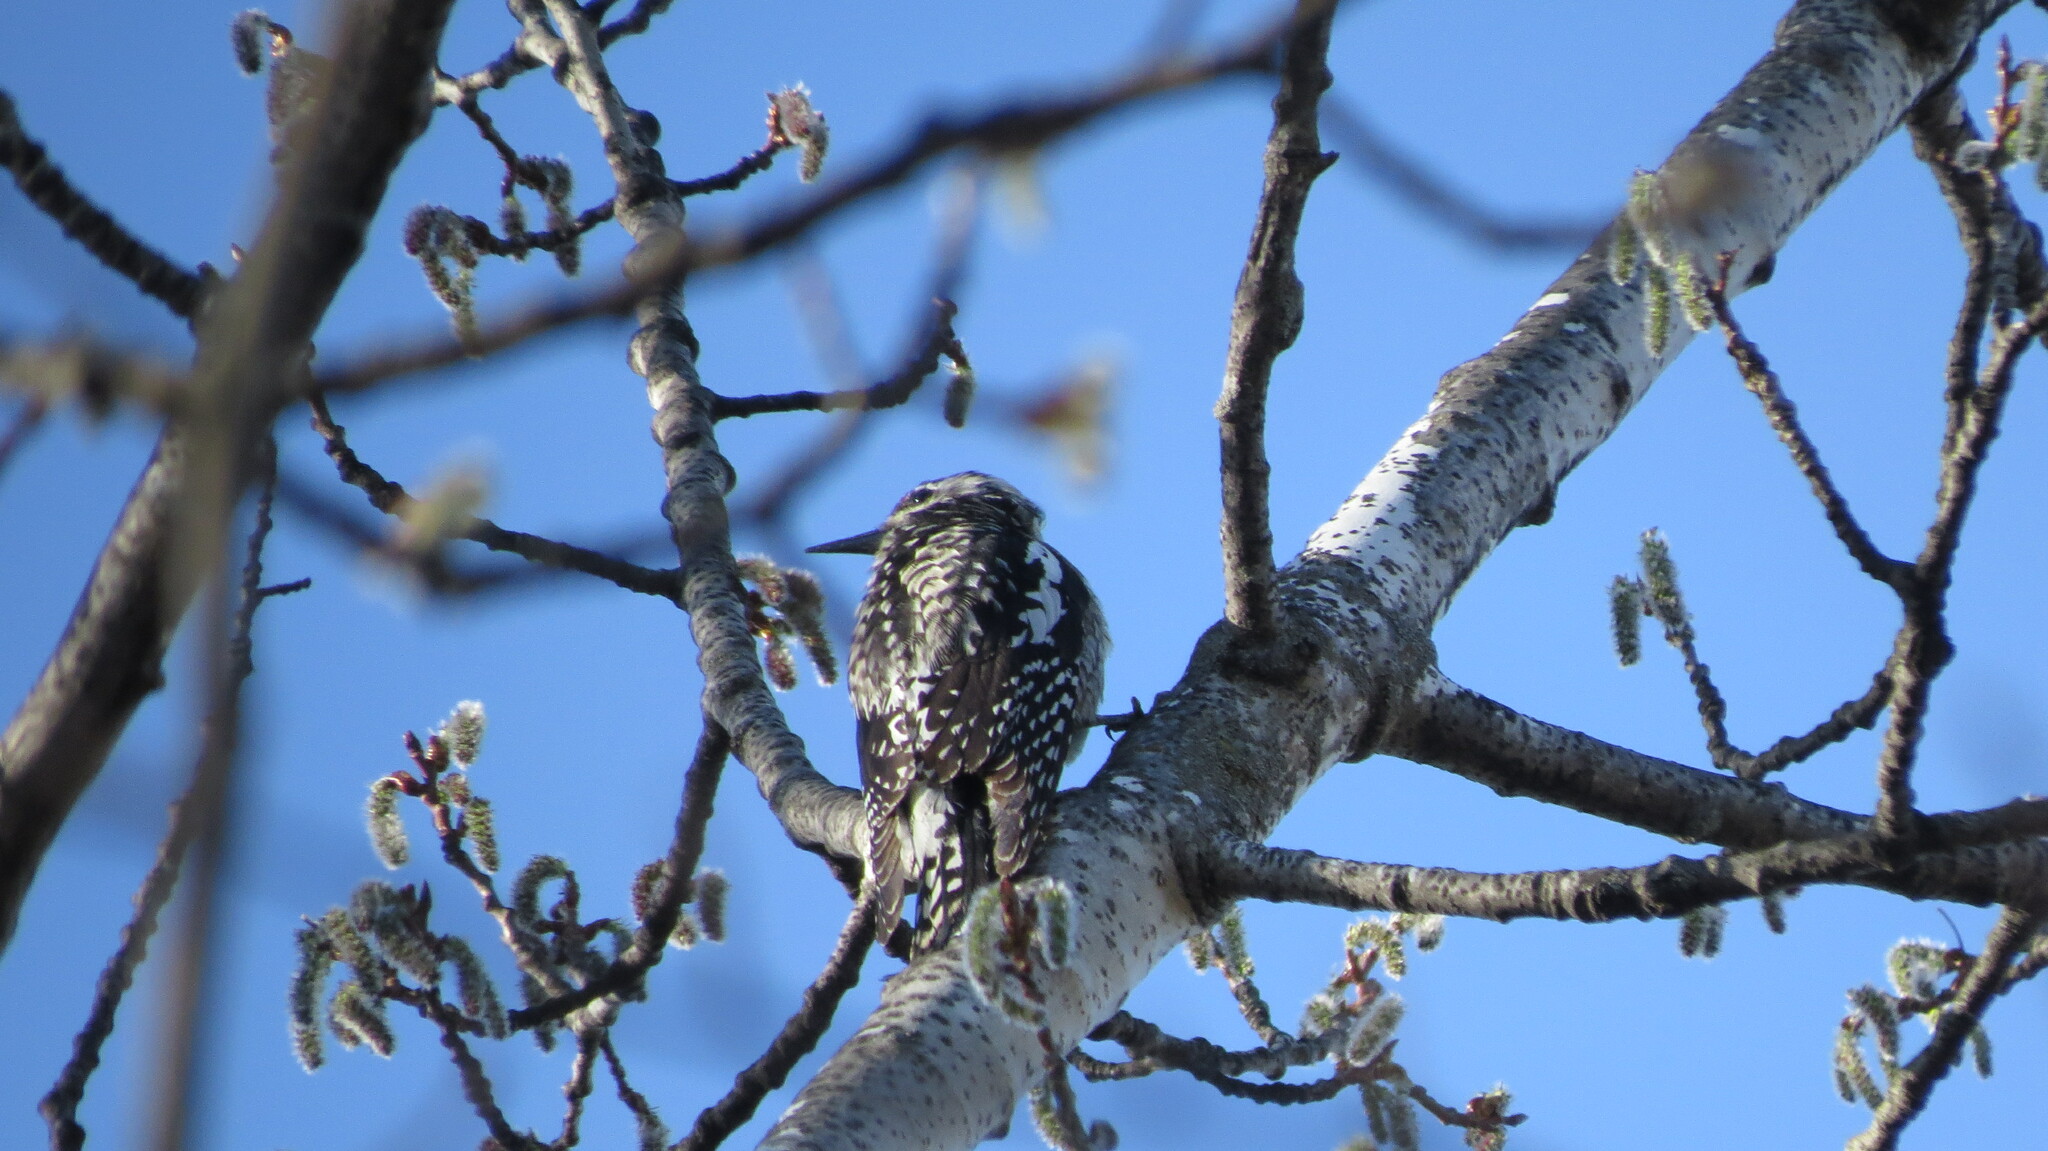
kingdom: Animalia
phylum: Chordata
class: Aves
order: Piciformes
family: Picidae
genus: Sphyrapicus
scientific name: Sphyrapicus varius
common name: Yellow-bellied sapsucker
